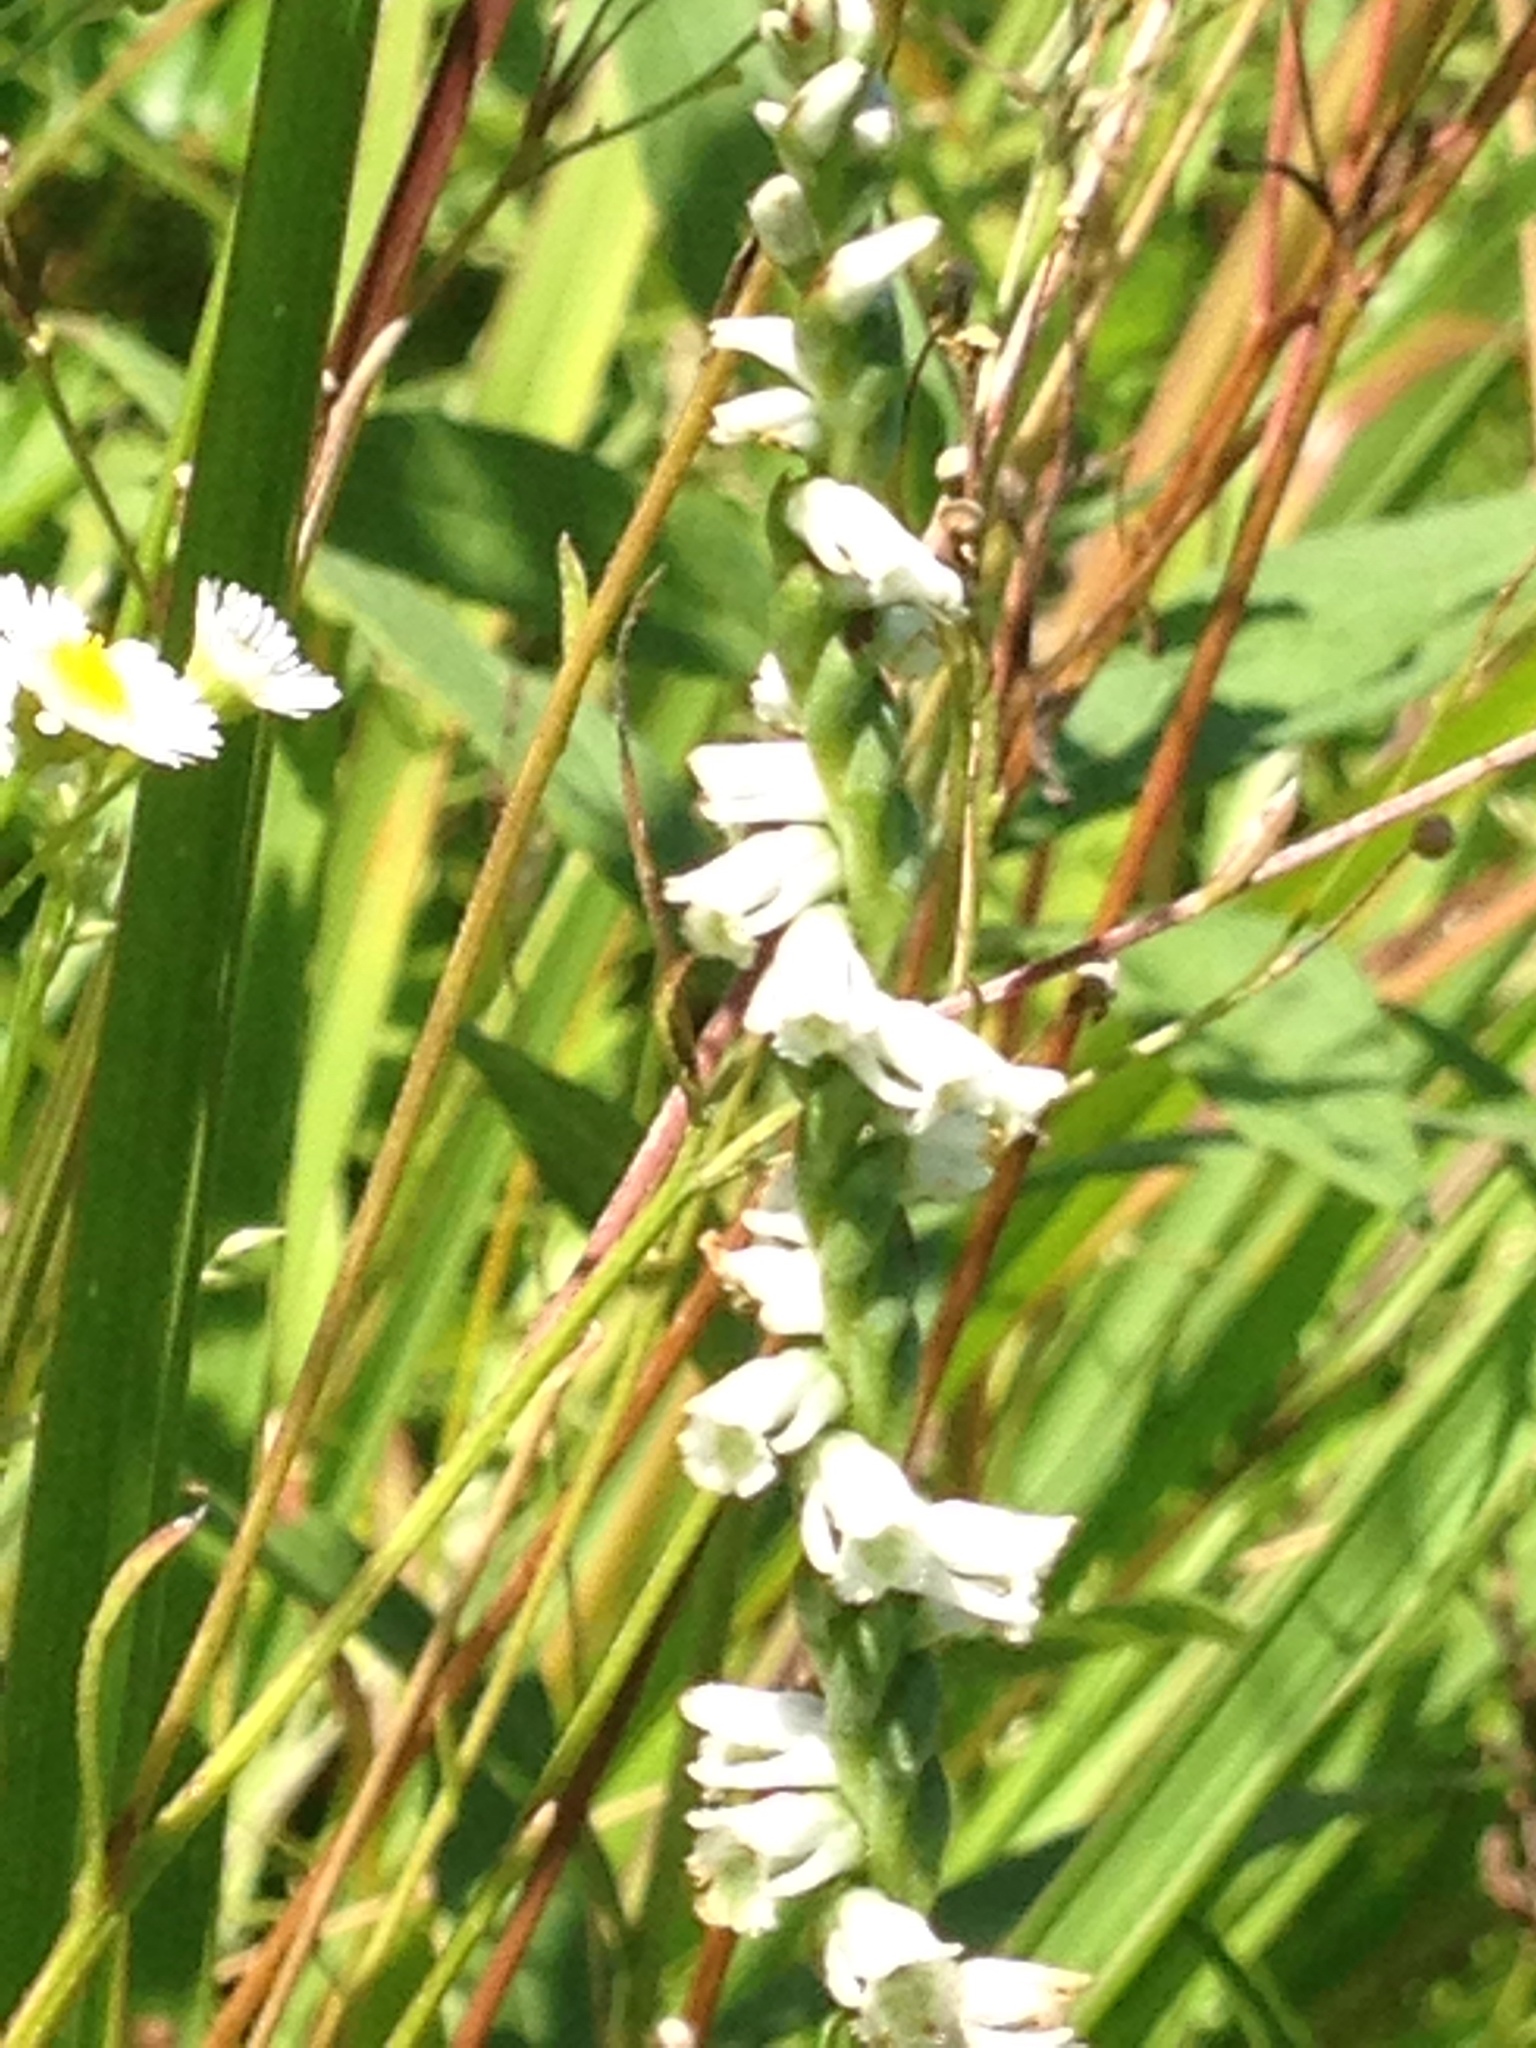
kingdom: Plantae
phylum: Tracheophyta
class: Liliopsida
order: Asparagales
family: Orchidaceae
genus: Spiranthes
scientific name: Spiranthes lacera
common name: Northern slender ladies'-tresses
